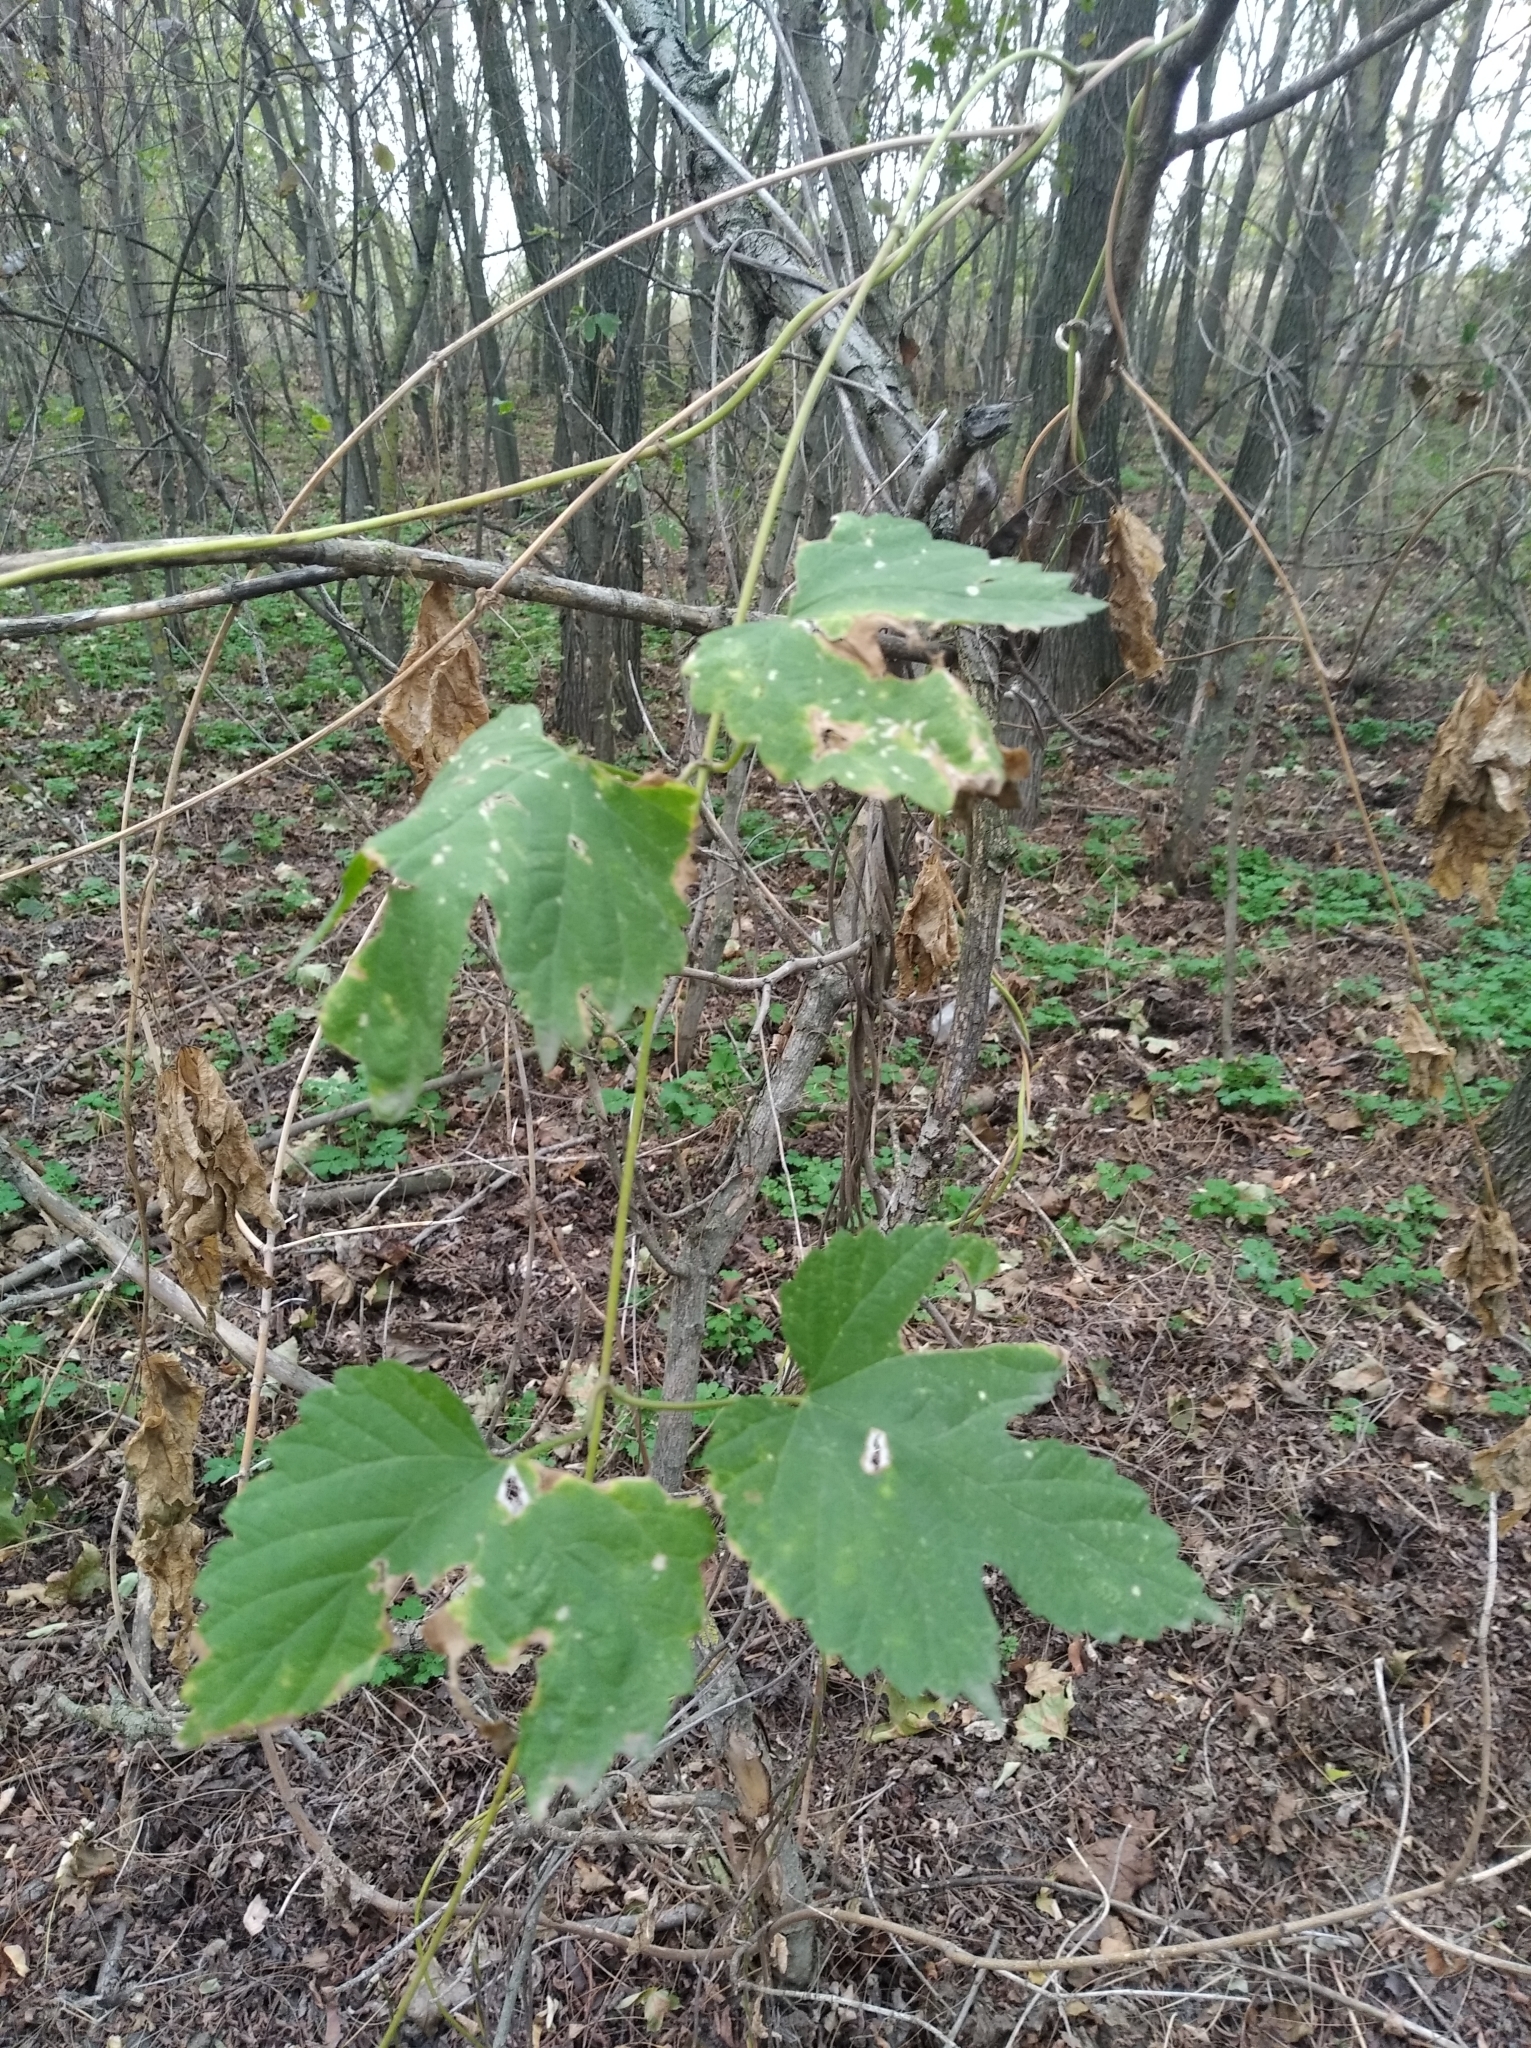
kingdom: Plantae
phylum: Tracheophyta
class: Magnoliopsida
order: Rosales
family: Cannabaceae
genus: Humulus
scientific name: Humulus lupulus
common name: Hop
